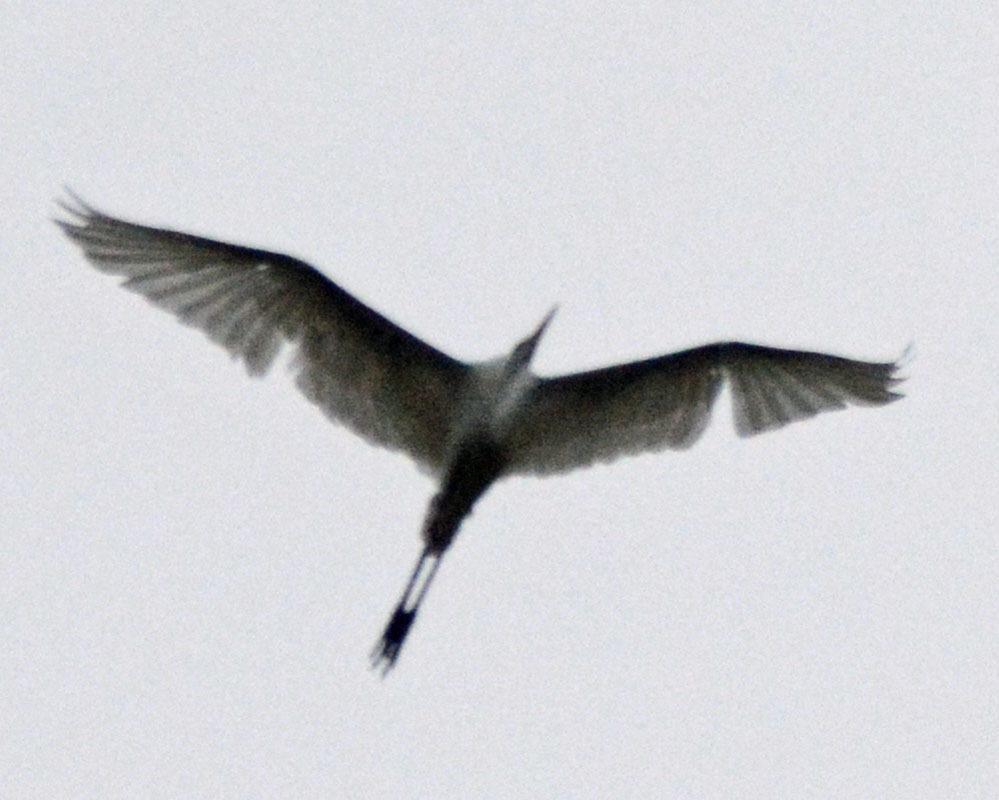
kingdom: Animalia
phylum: Chordata
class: Aves
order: Pelecaniformes
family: Ardeidae
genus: Ardea
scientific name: Ardea alba
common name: Great egret
